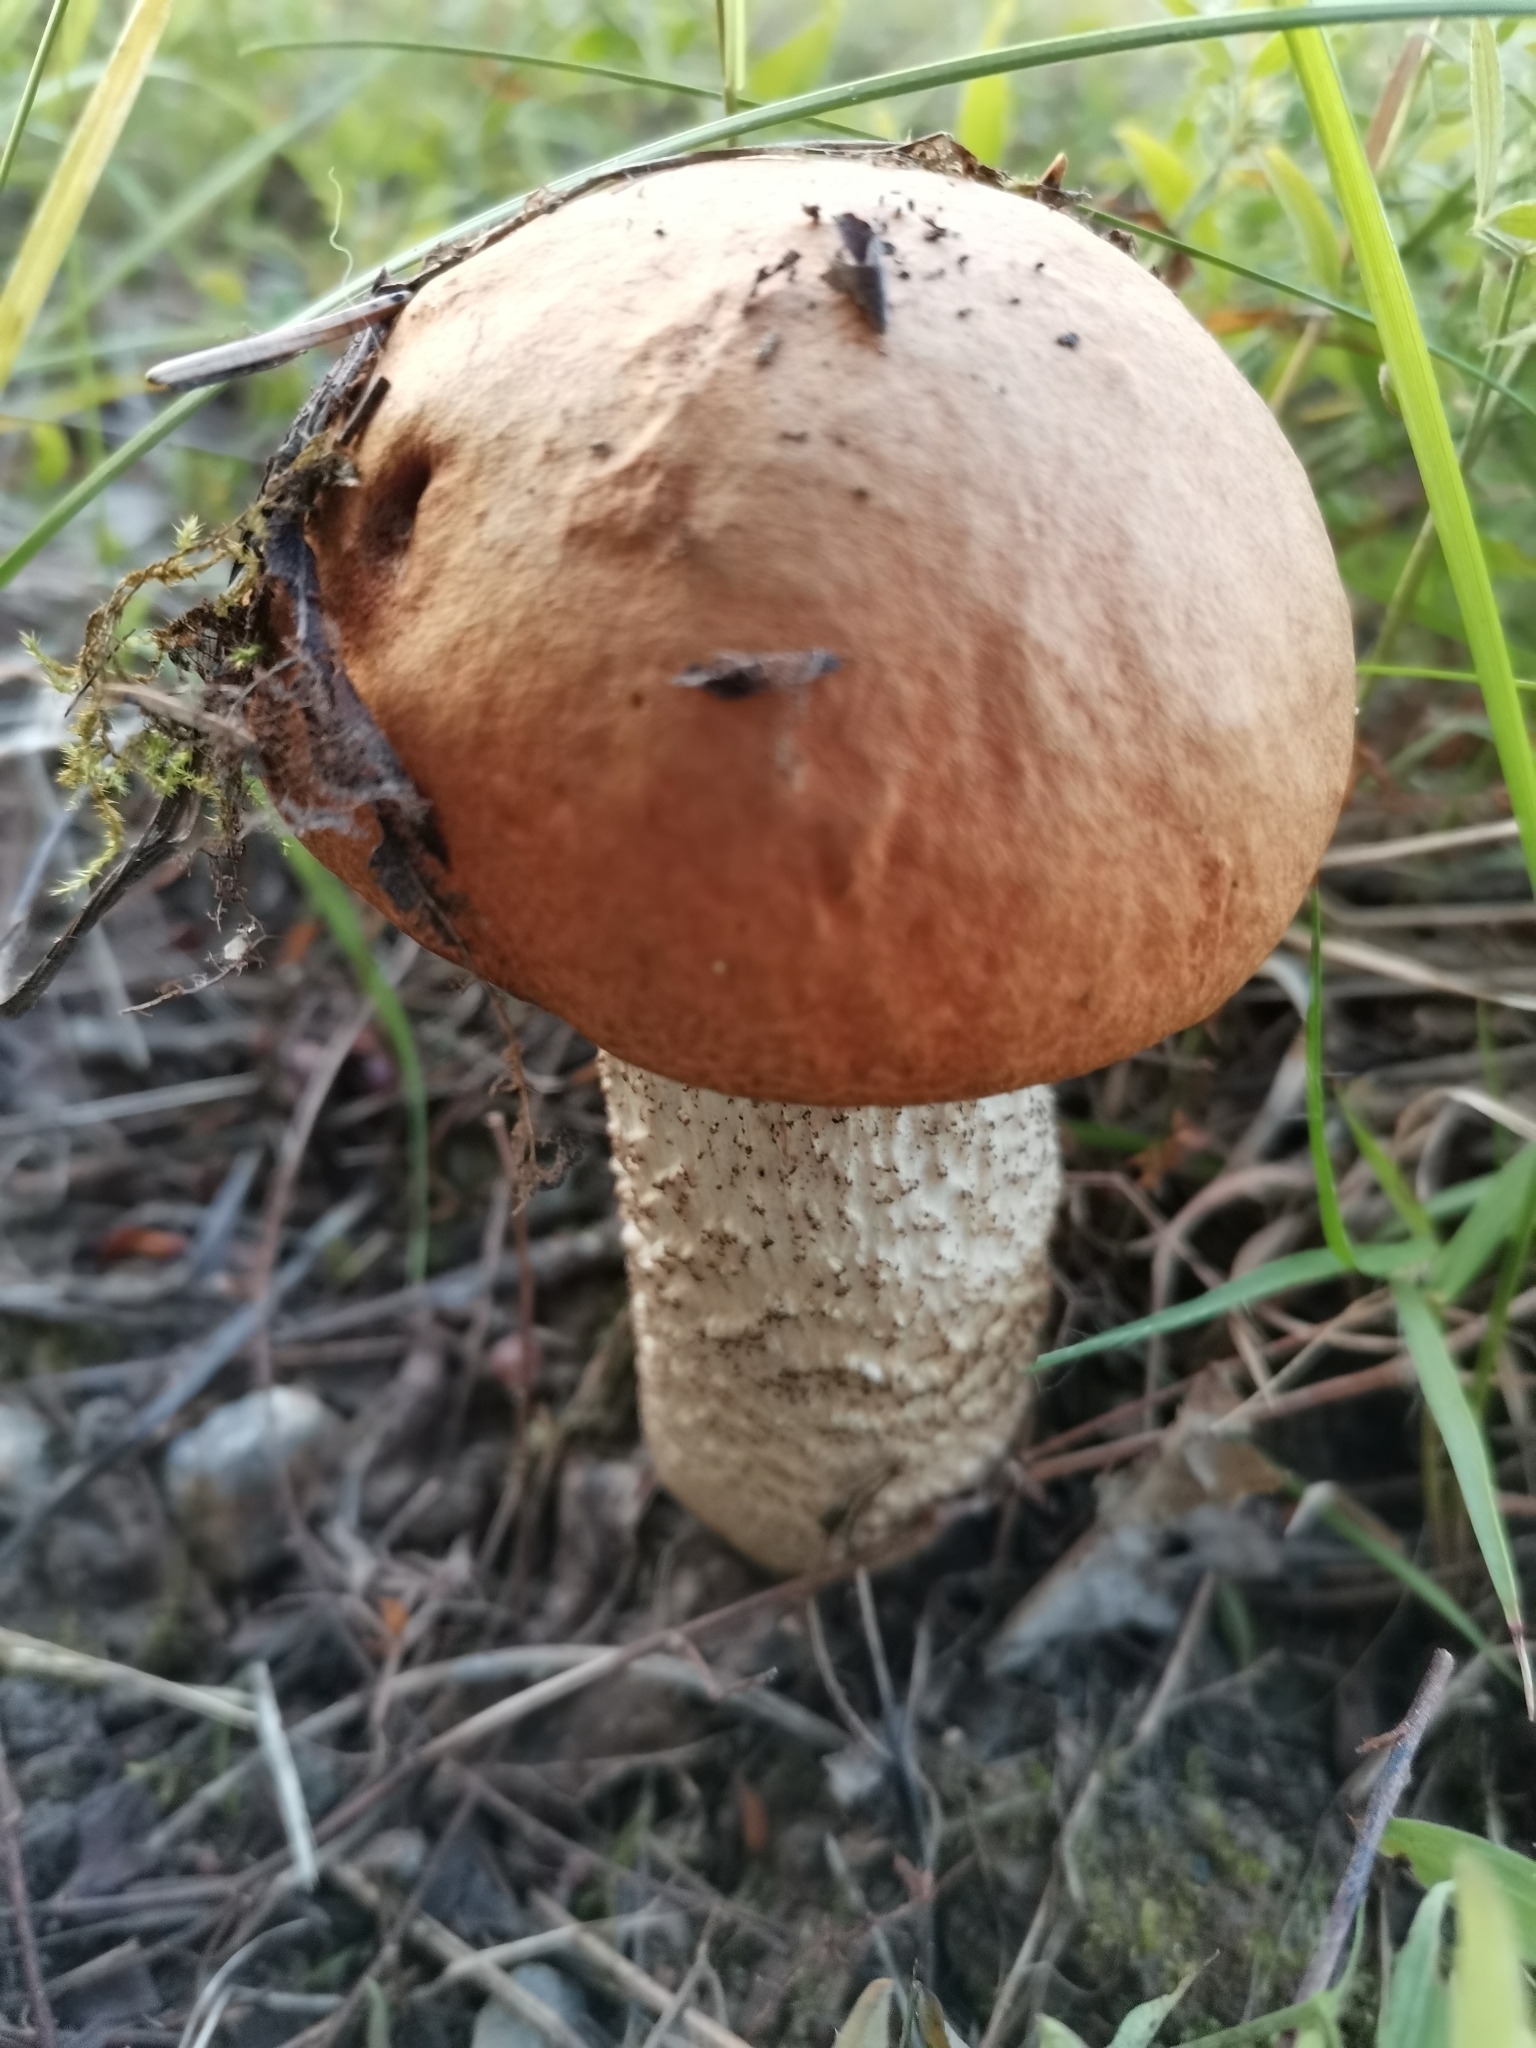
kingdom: Fungi
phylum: Basidiomycota
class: Agaricomycetes
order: Boletales
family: Boletaceae
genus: Leccinum
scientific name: Leccinum aurantiacum
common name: Orange bolete
